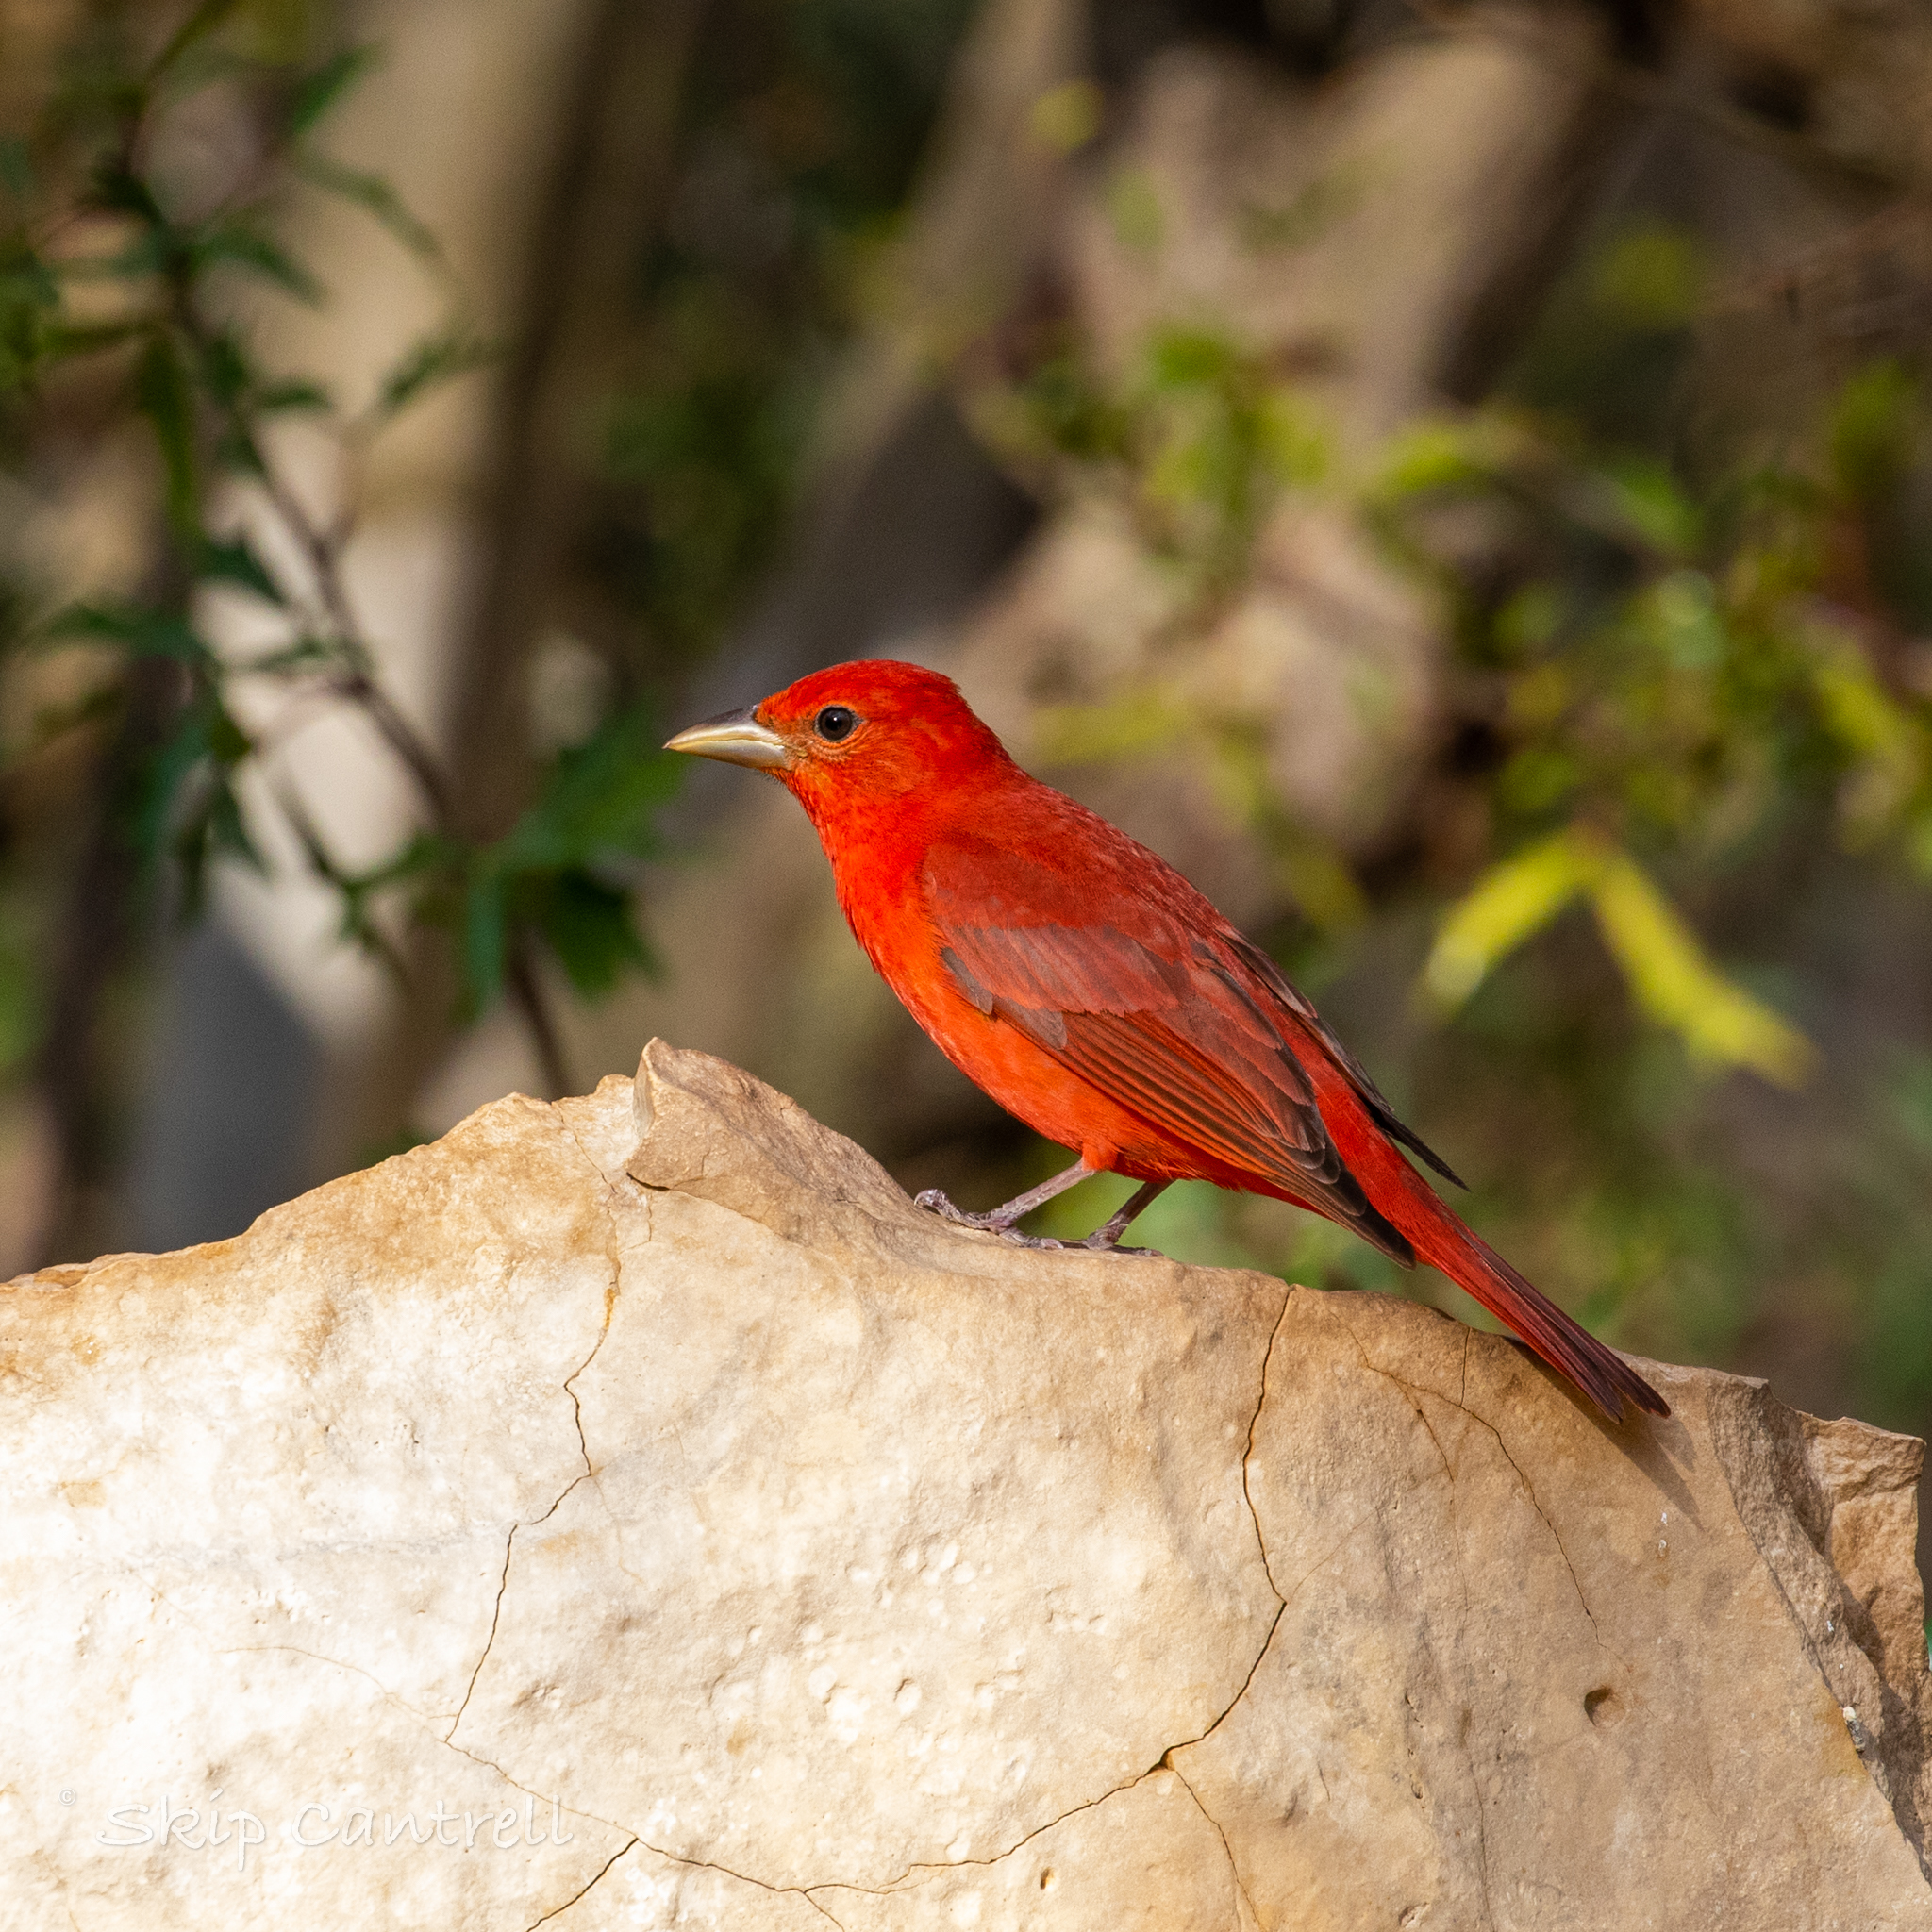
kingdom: Animalia
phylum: Chordata
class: Aves
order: Passeriformes
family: Cardinalidae
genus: Piranga
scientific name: Piranga rubra
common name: Summer tanager
